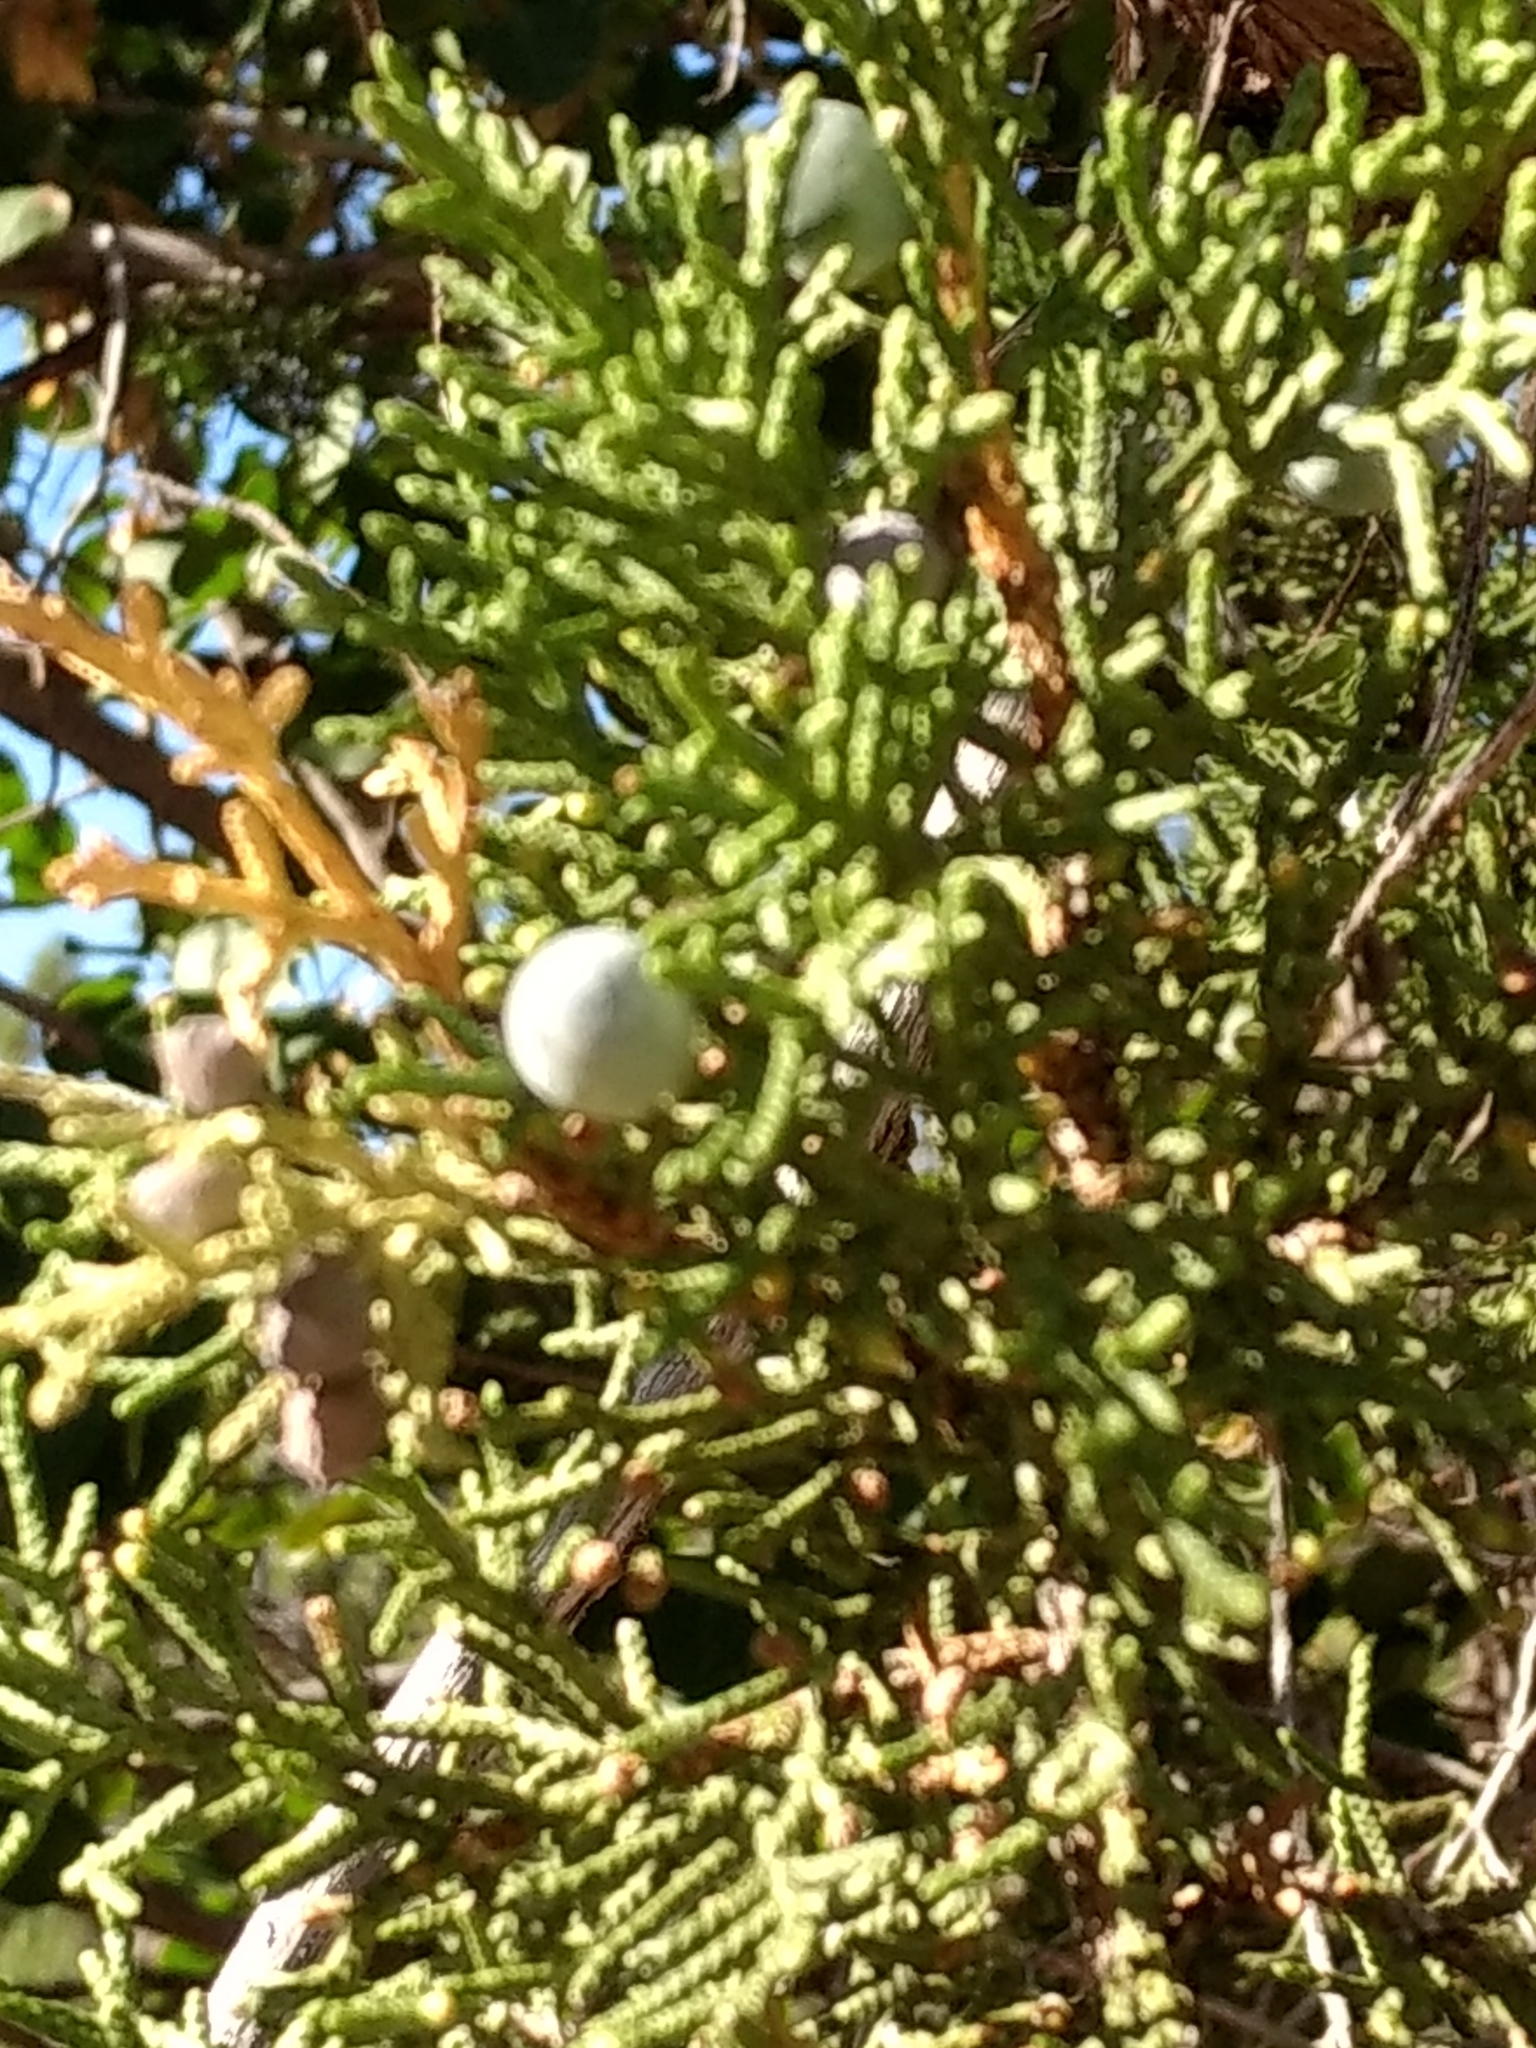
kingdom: Plantae
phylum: Tracheophyta
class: Pinopsida
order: Pinales
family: Cupressaceae
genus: Juniperus
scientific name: Juniperus osteosperma
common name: Utah juniper
